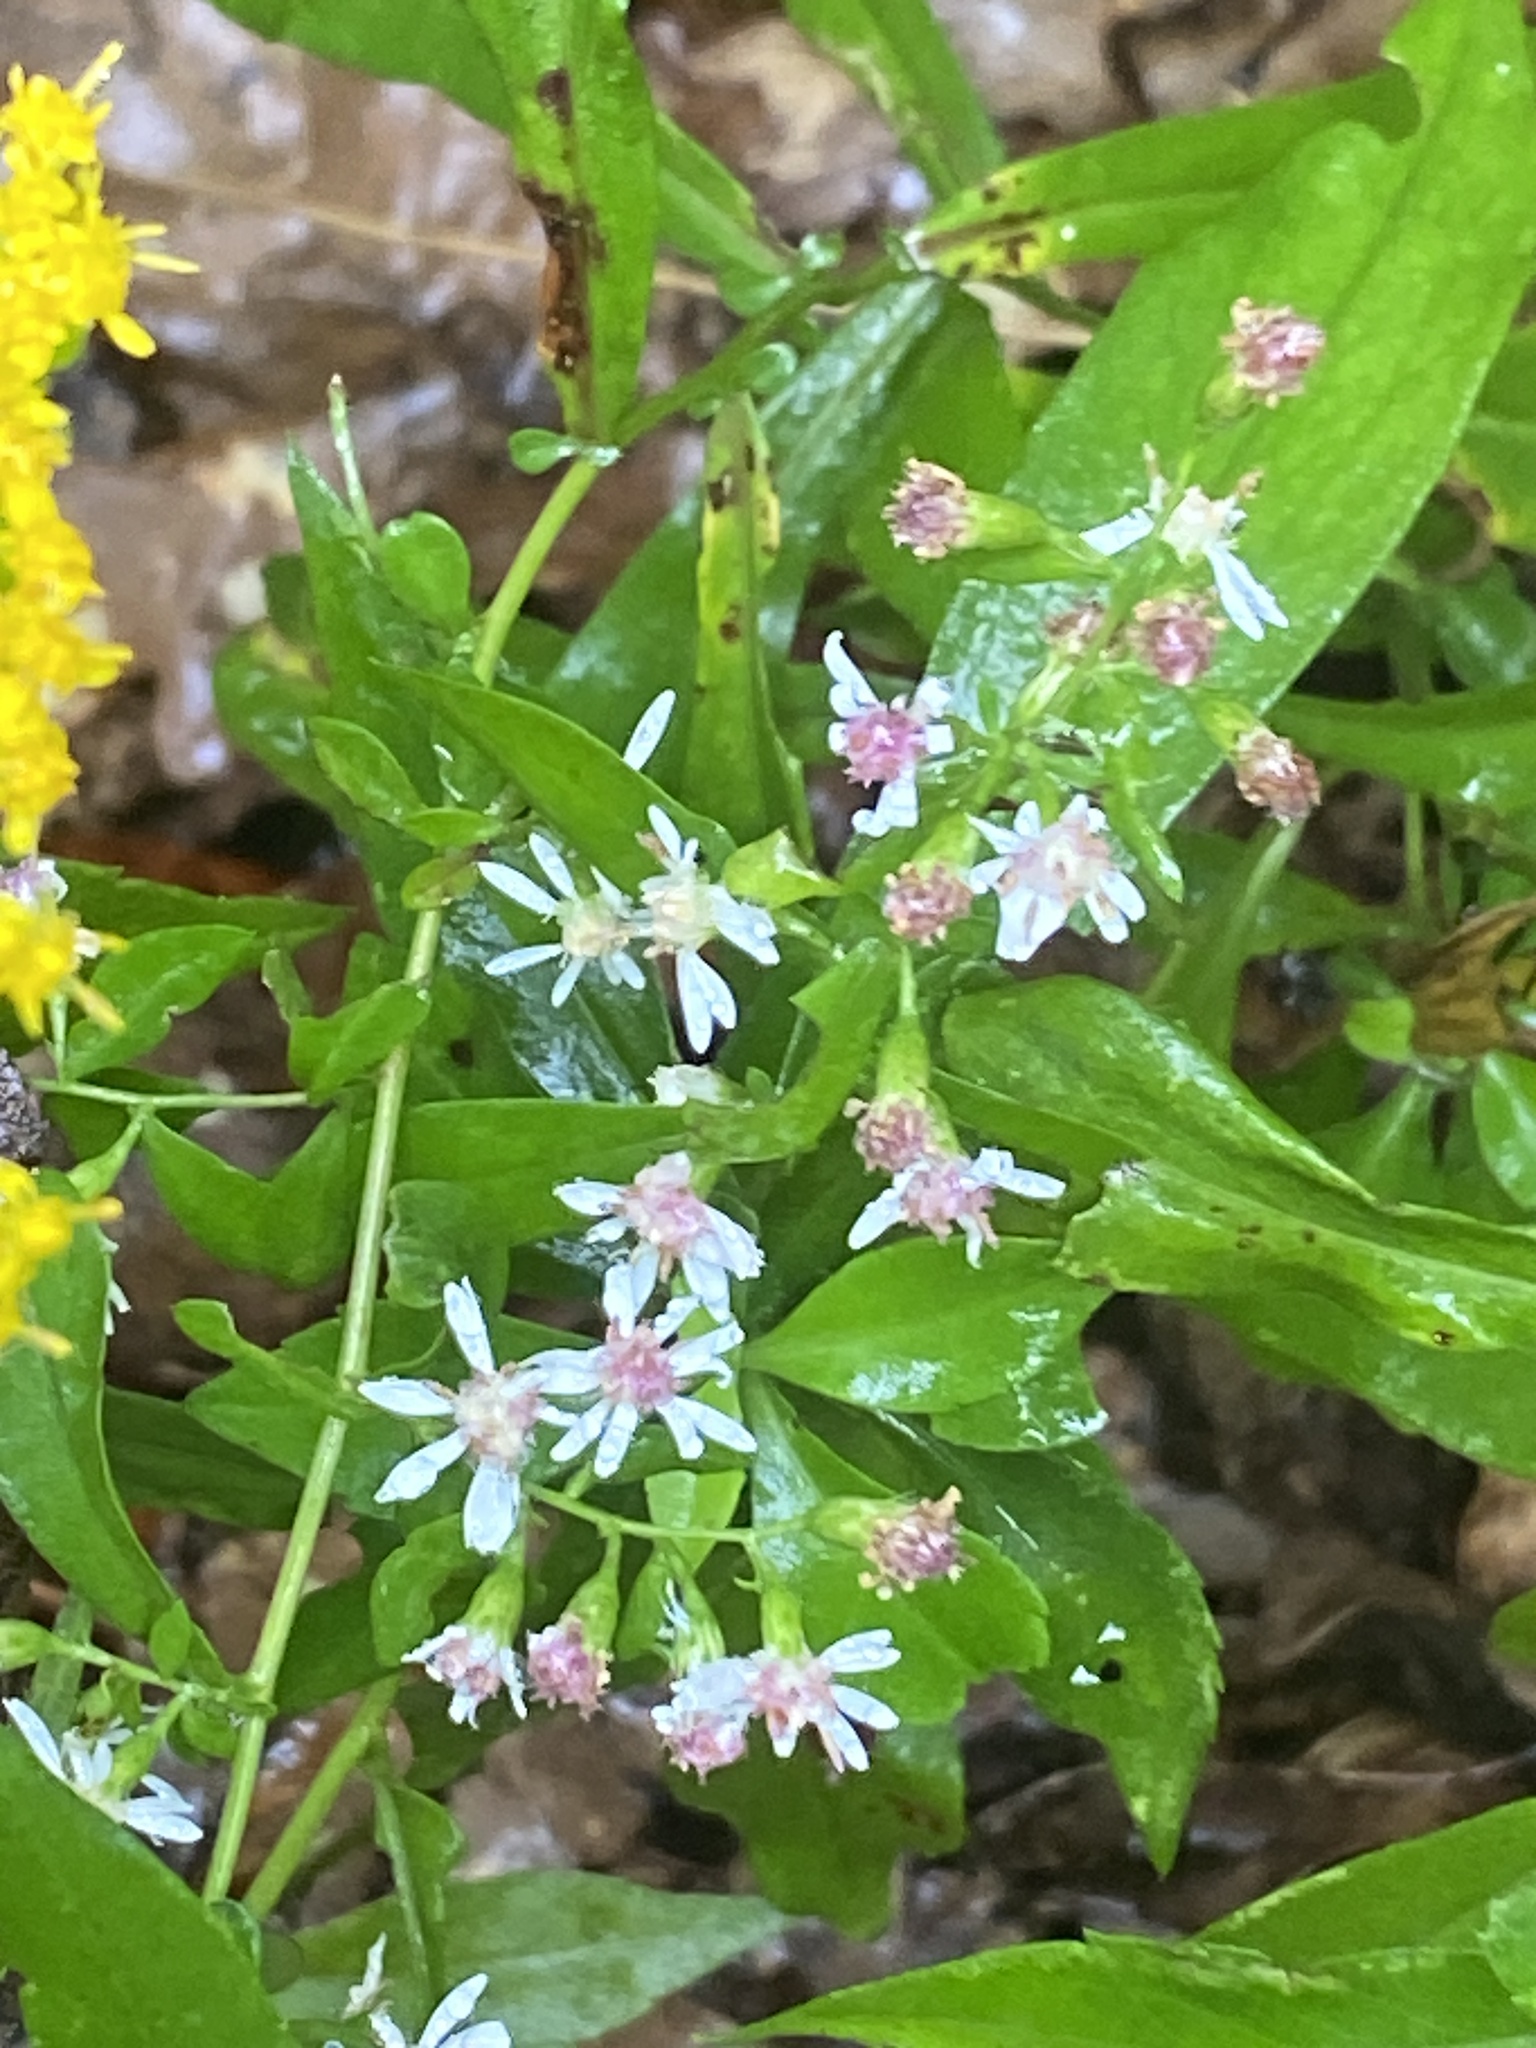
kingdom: Plantae
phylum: Tracheophyta
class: Magnoliopsida
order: Asterales
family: Asteraceae
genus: Symphyotrichum
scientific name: Symphyotrichum lateriflorum
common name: Calico aster
